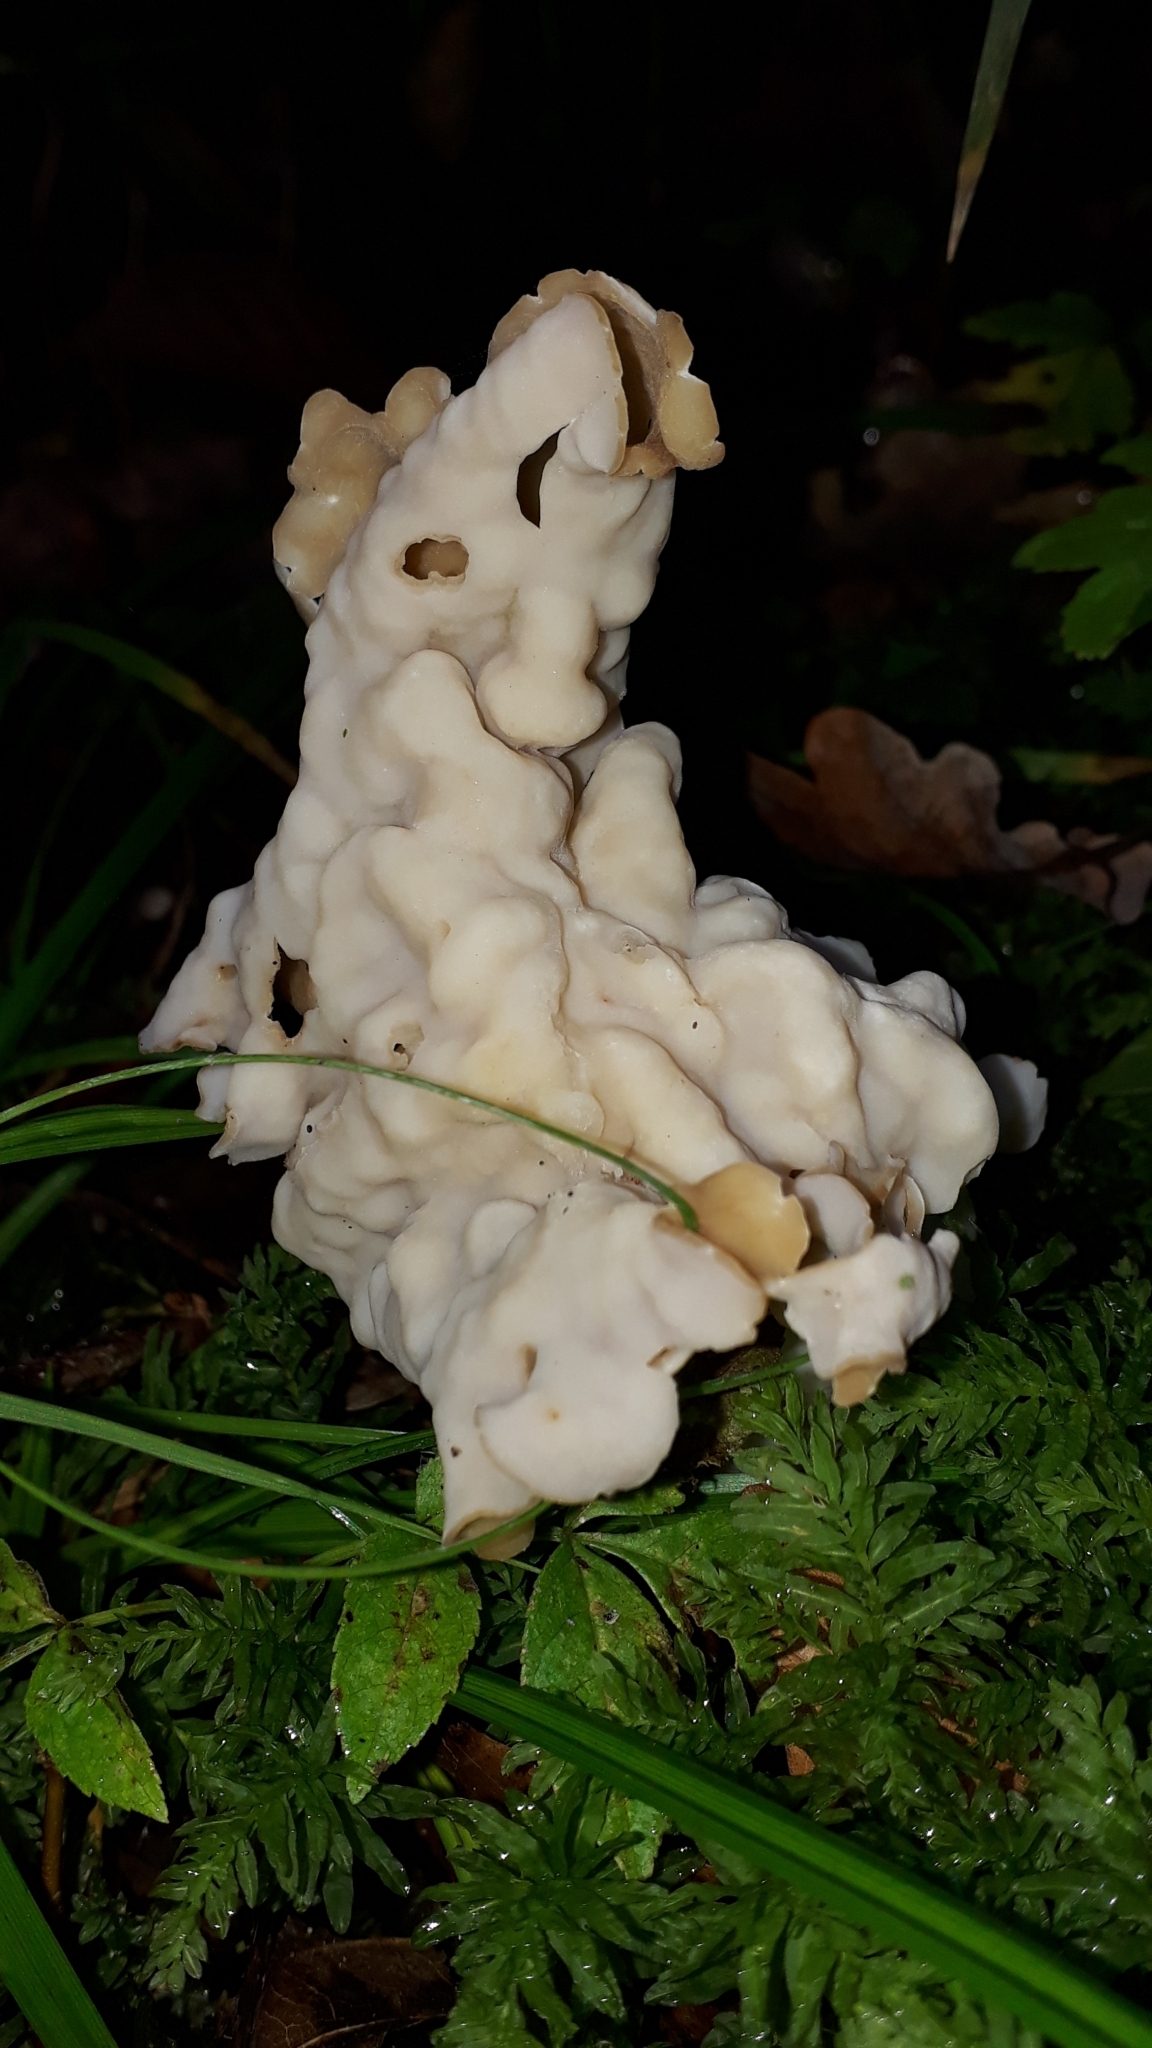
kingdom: Fungi
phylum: Ascomycota
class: Pezizomycetes
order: Pezizales
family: Helvellaceae
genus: Helvella
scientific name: Helvella crispa
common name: White saddle
